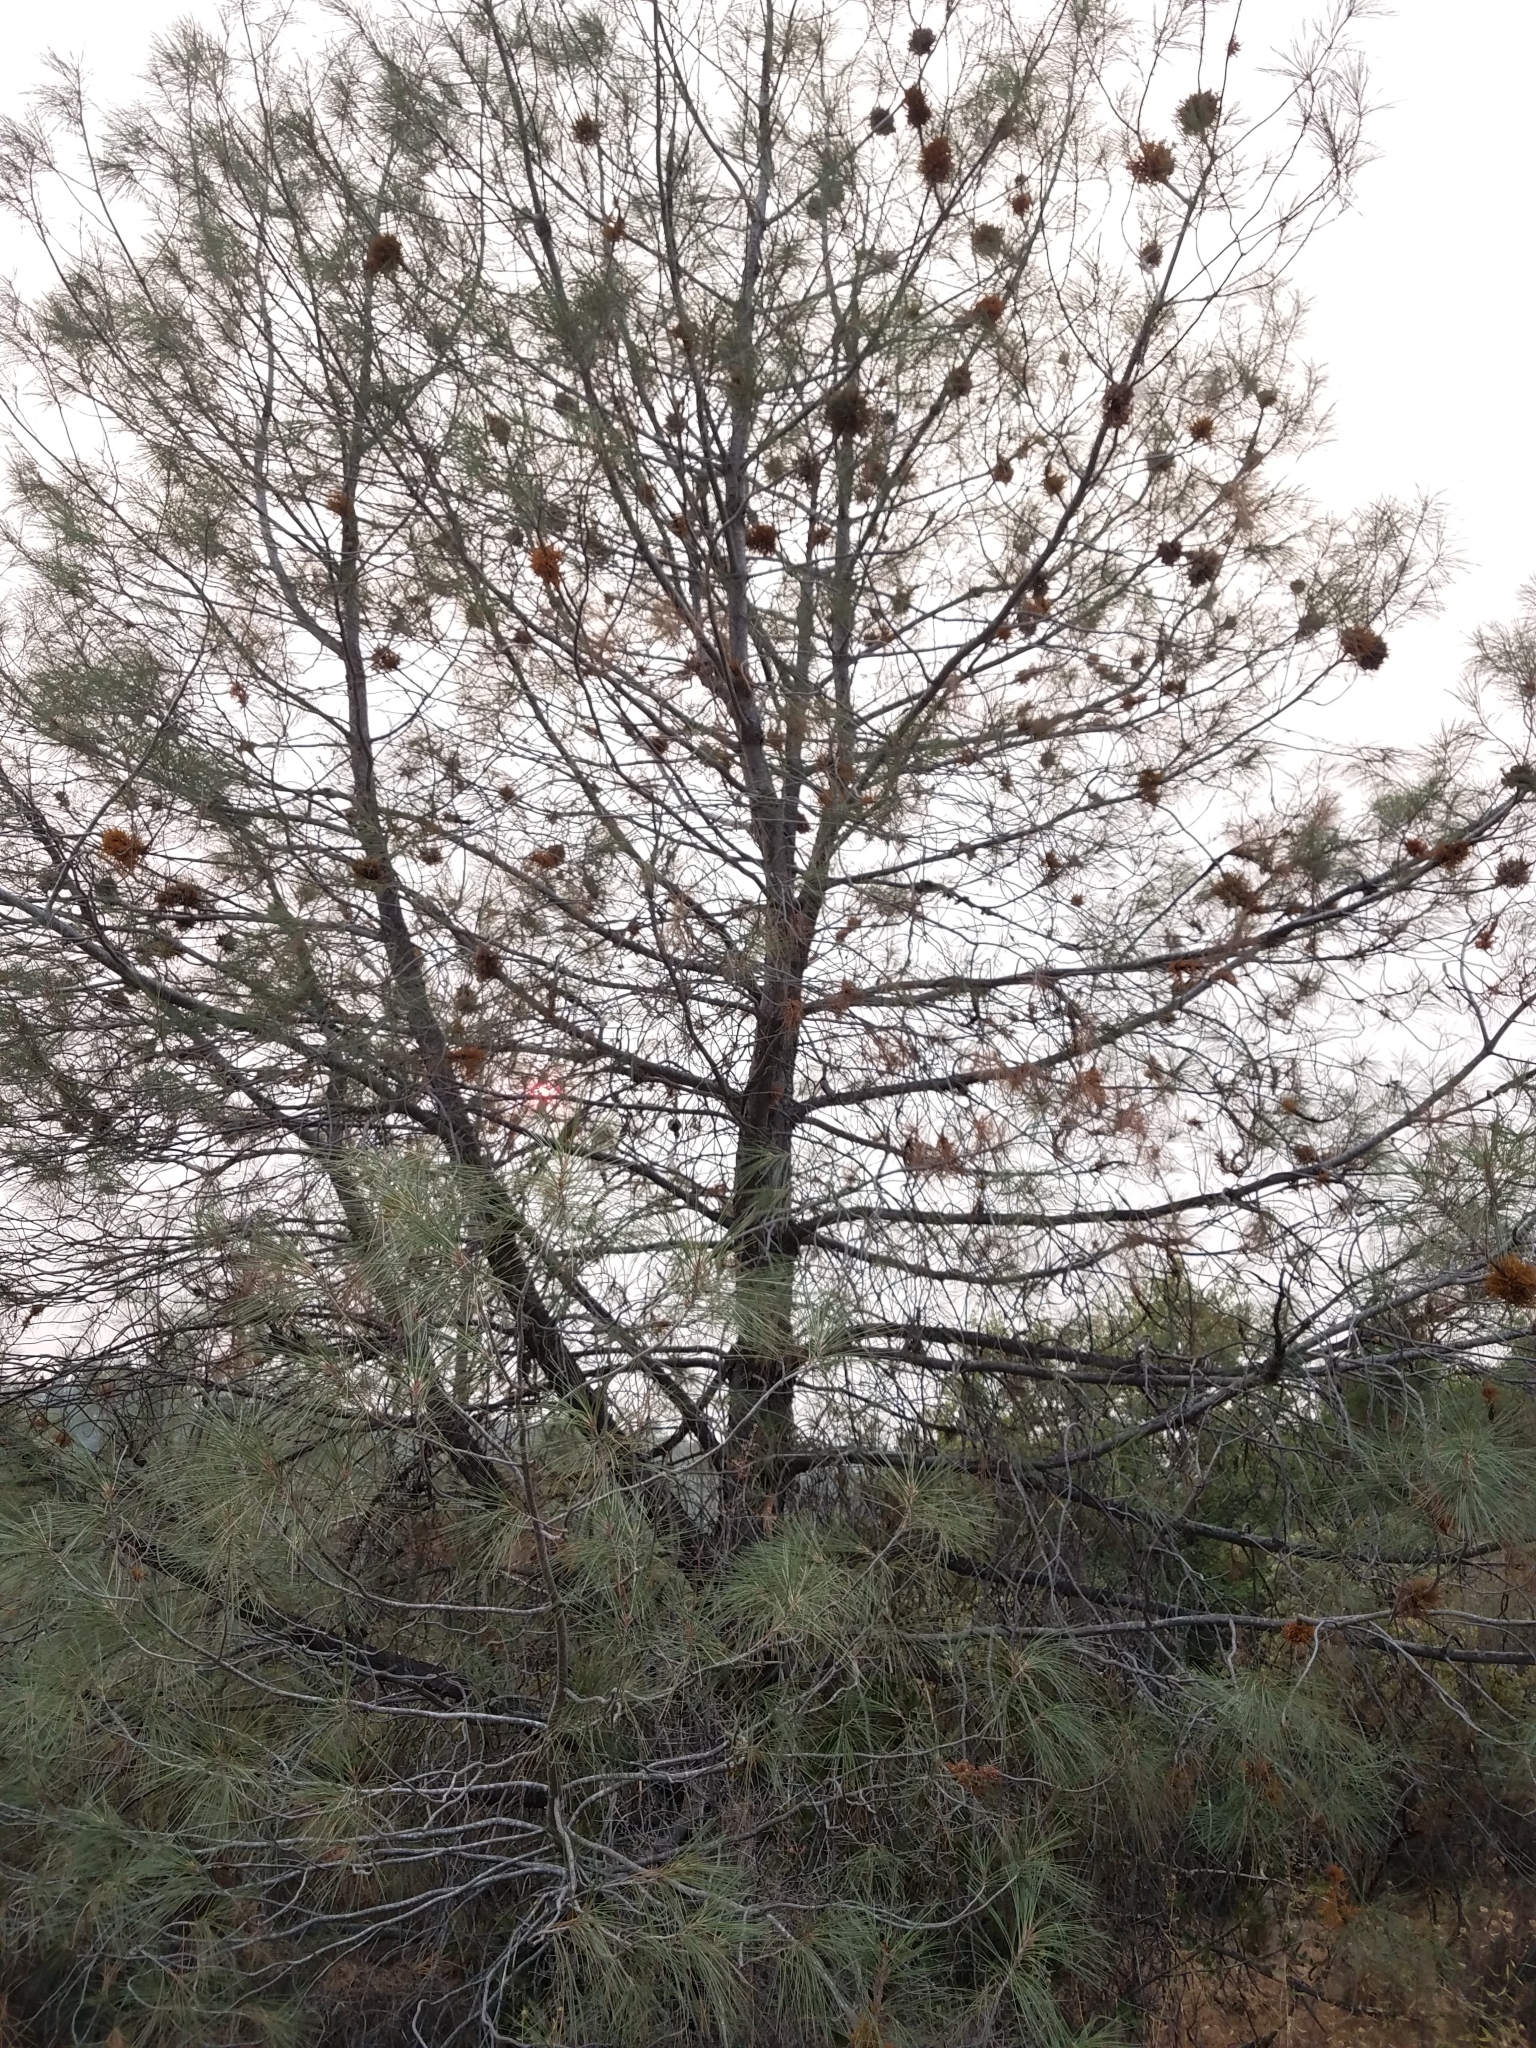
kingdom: Plantae
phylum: Tracheophyta
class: Magnoliopsida
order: Santalales
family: Viscaceae
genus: Arceuthobium
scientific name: Arceuthobium campylopodum
